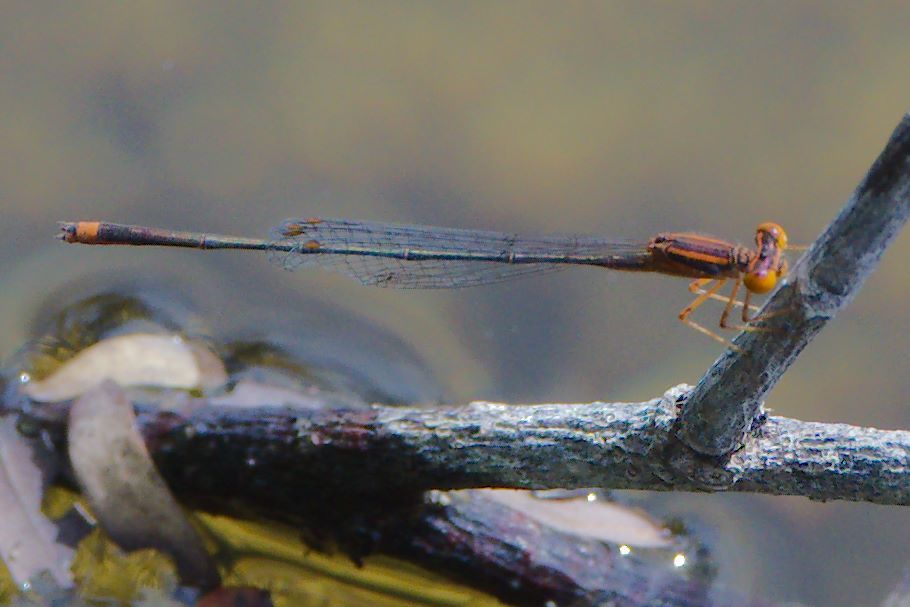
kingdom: Animalia
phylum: Arthropoda
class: Insecta
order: Odonata
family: Coenagrionidae
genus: Enallagma
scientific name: Enallagma signatum
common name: Orange bluet
